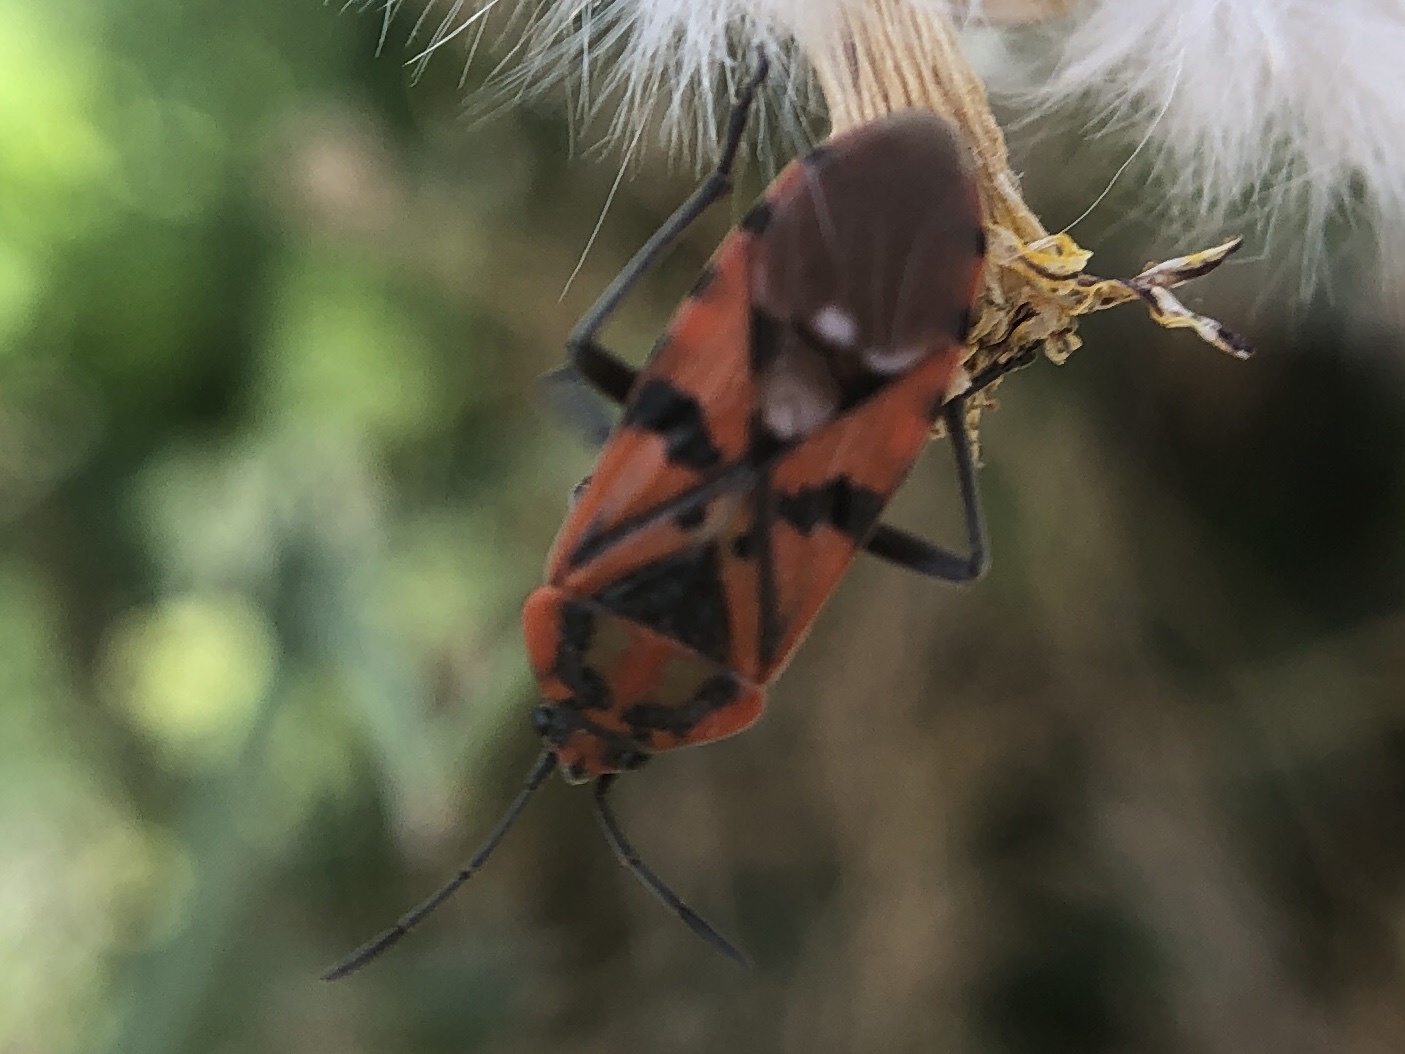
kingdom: Animalia
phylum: Arthropoda
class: Insecta
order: Hemiptera
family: Lygaeidae
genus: Spilostethus
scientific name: Spilostethus pandurus
